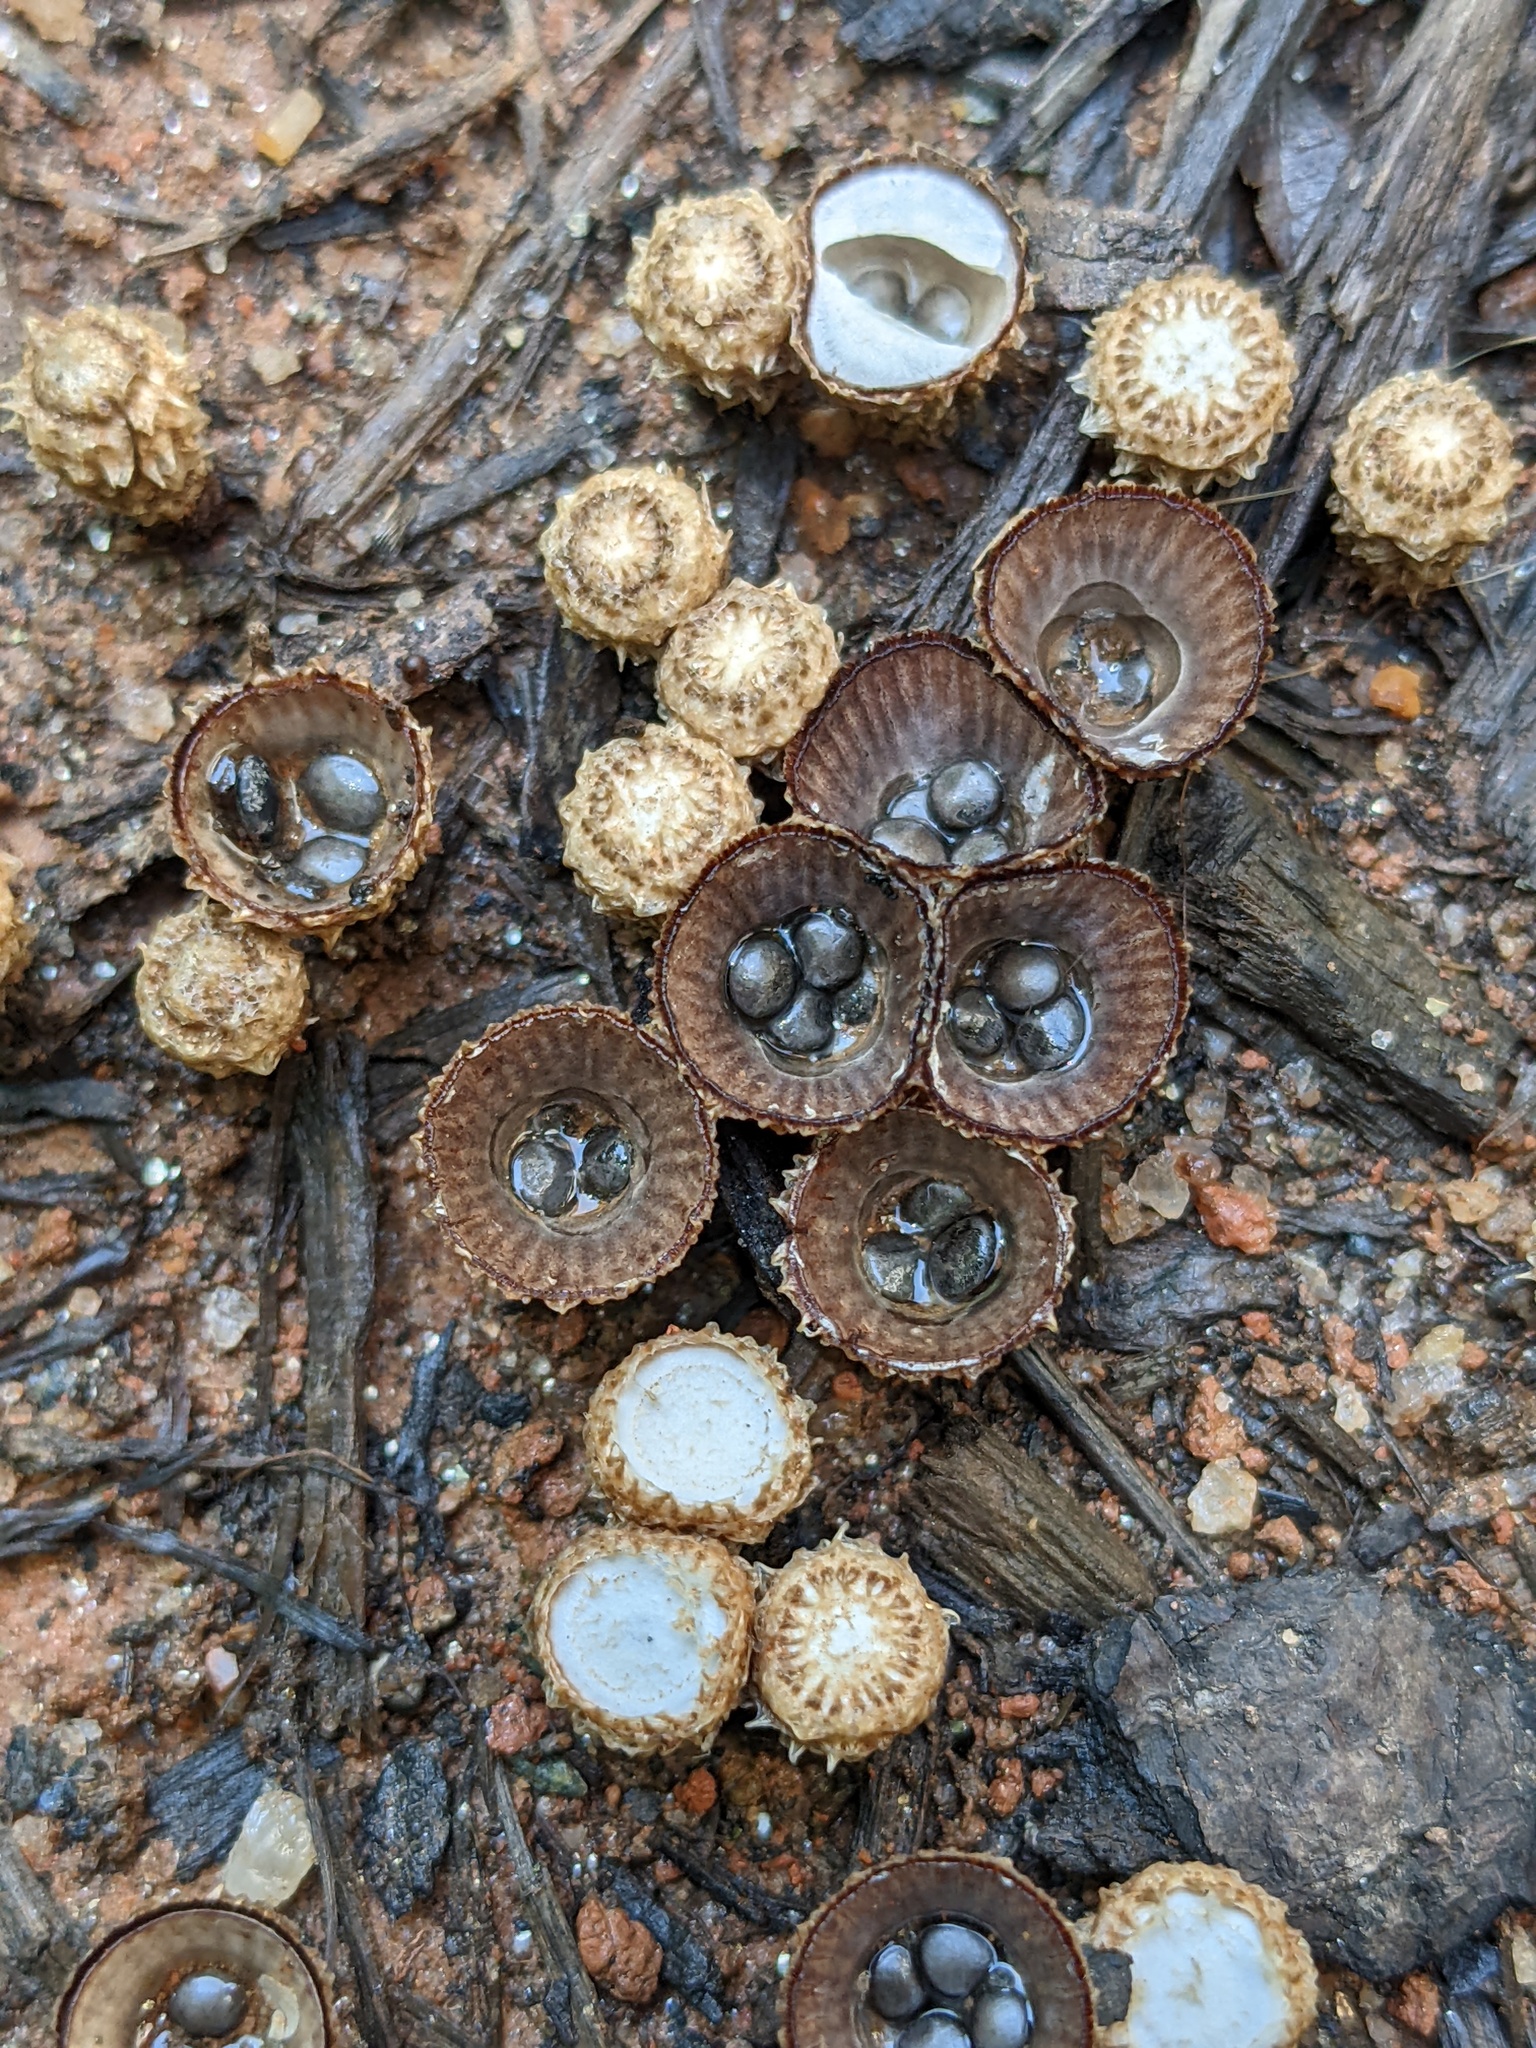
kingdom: Fungi
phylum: Basidiomycota
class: Agaricomycetes
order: Agaricales
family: Agaricaceae
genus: Cyathus
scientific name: Cyathus striatus
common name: Fluted bird's nest
